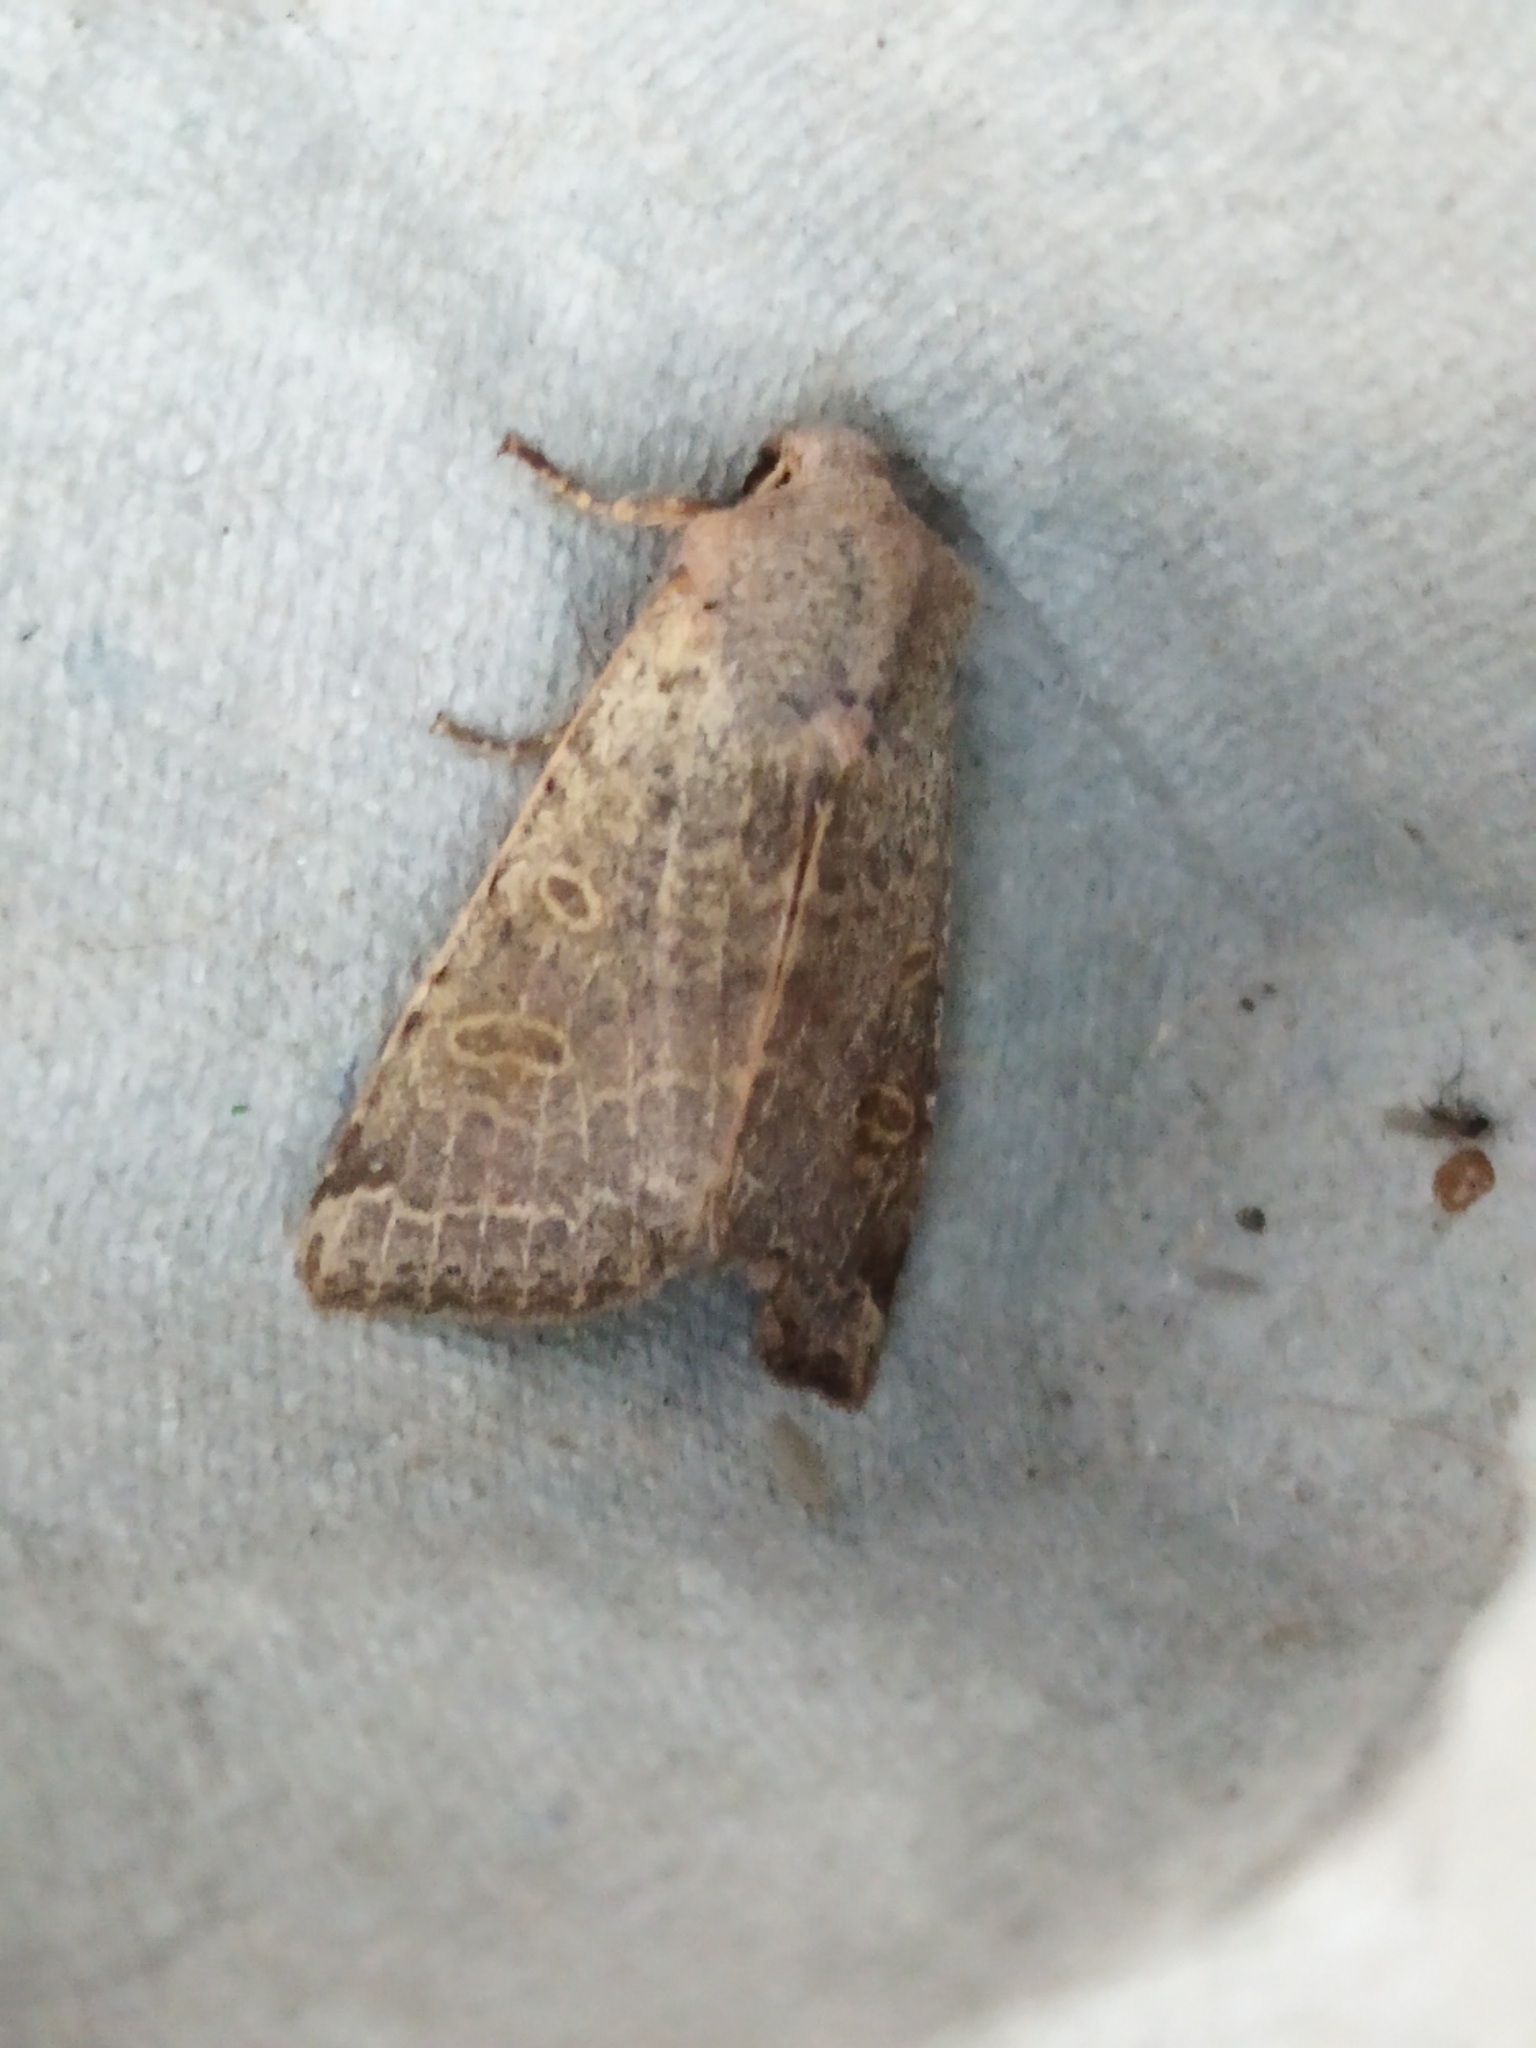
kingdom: Animalia
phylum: Arthropoda
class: Insecta
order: Lepidoptera
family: Noctuidae
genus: Agrochola
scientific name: Agrochola lychnidis
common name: Beaded chestnut
